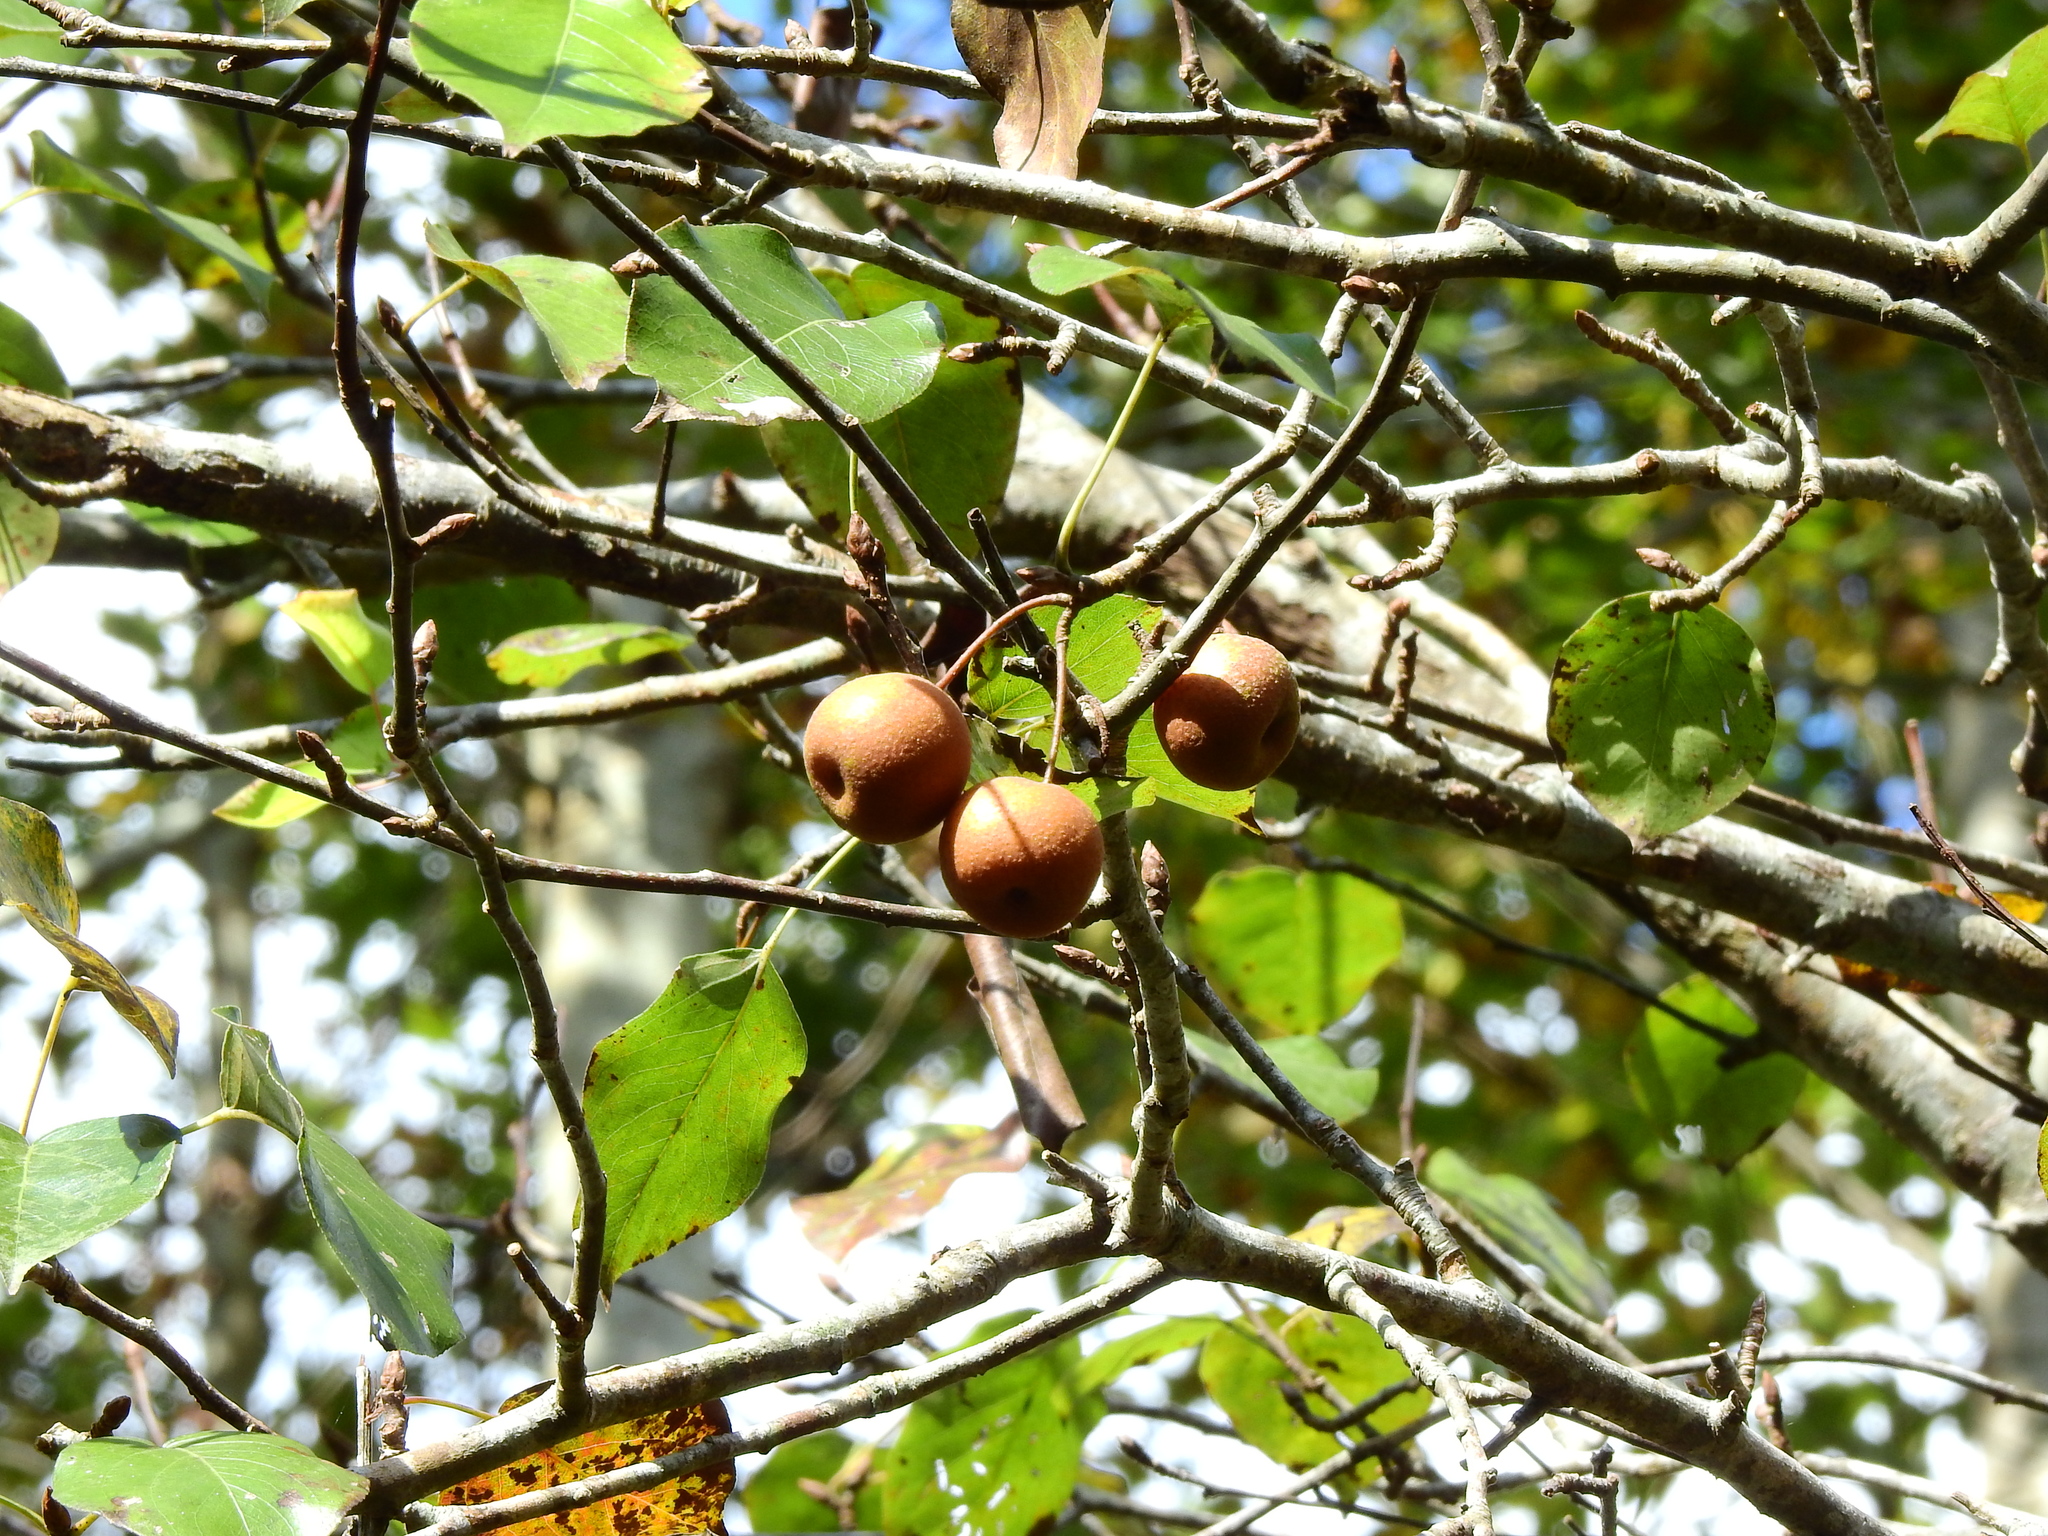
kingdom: Plantae
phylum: Tracheophyta
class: Magnoliopsida
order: Rosales
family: Rosaceae
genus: Pyrus
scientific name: Pyrus calleryana
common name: Callery pear
